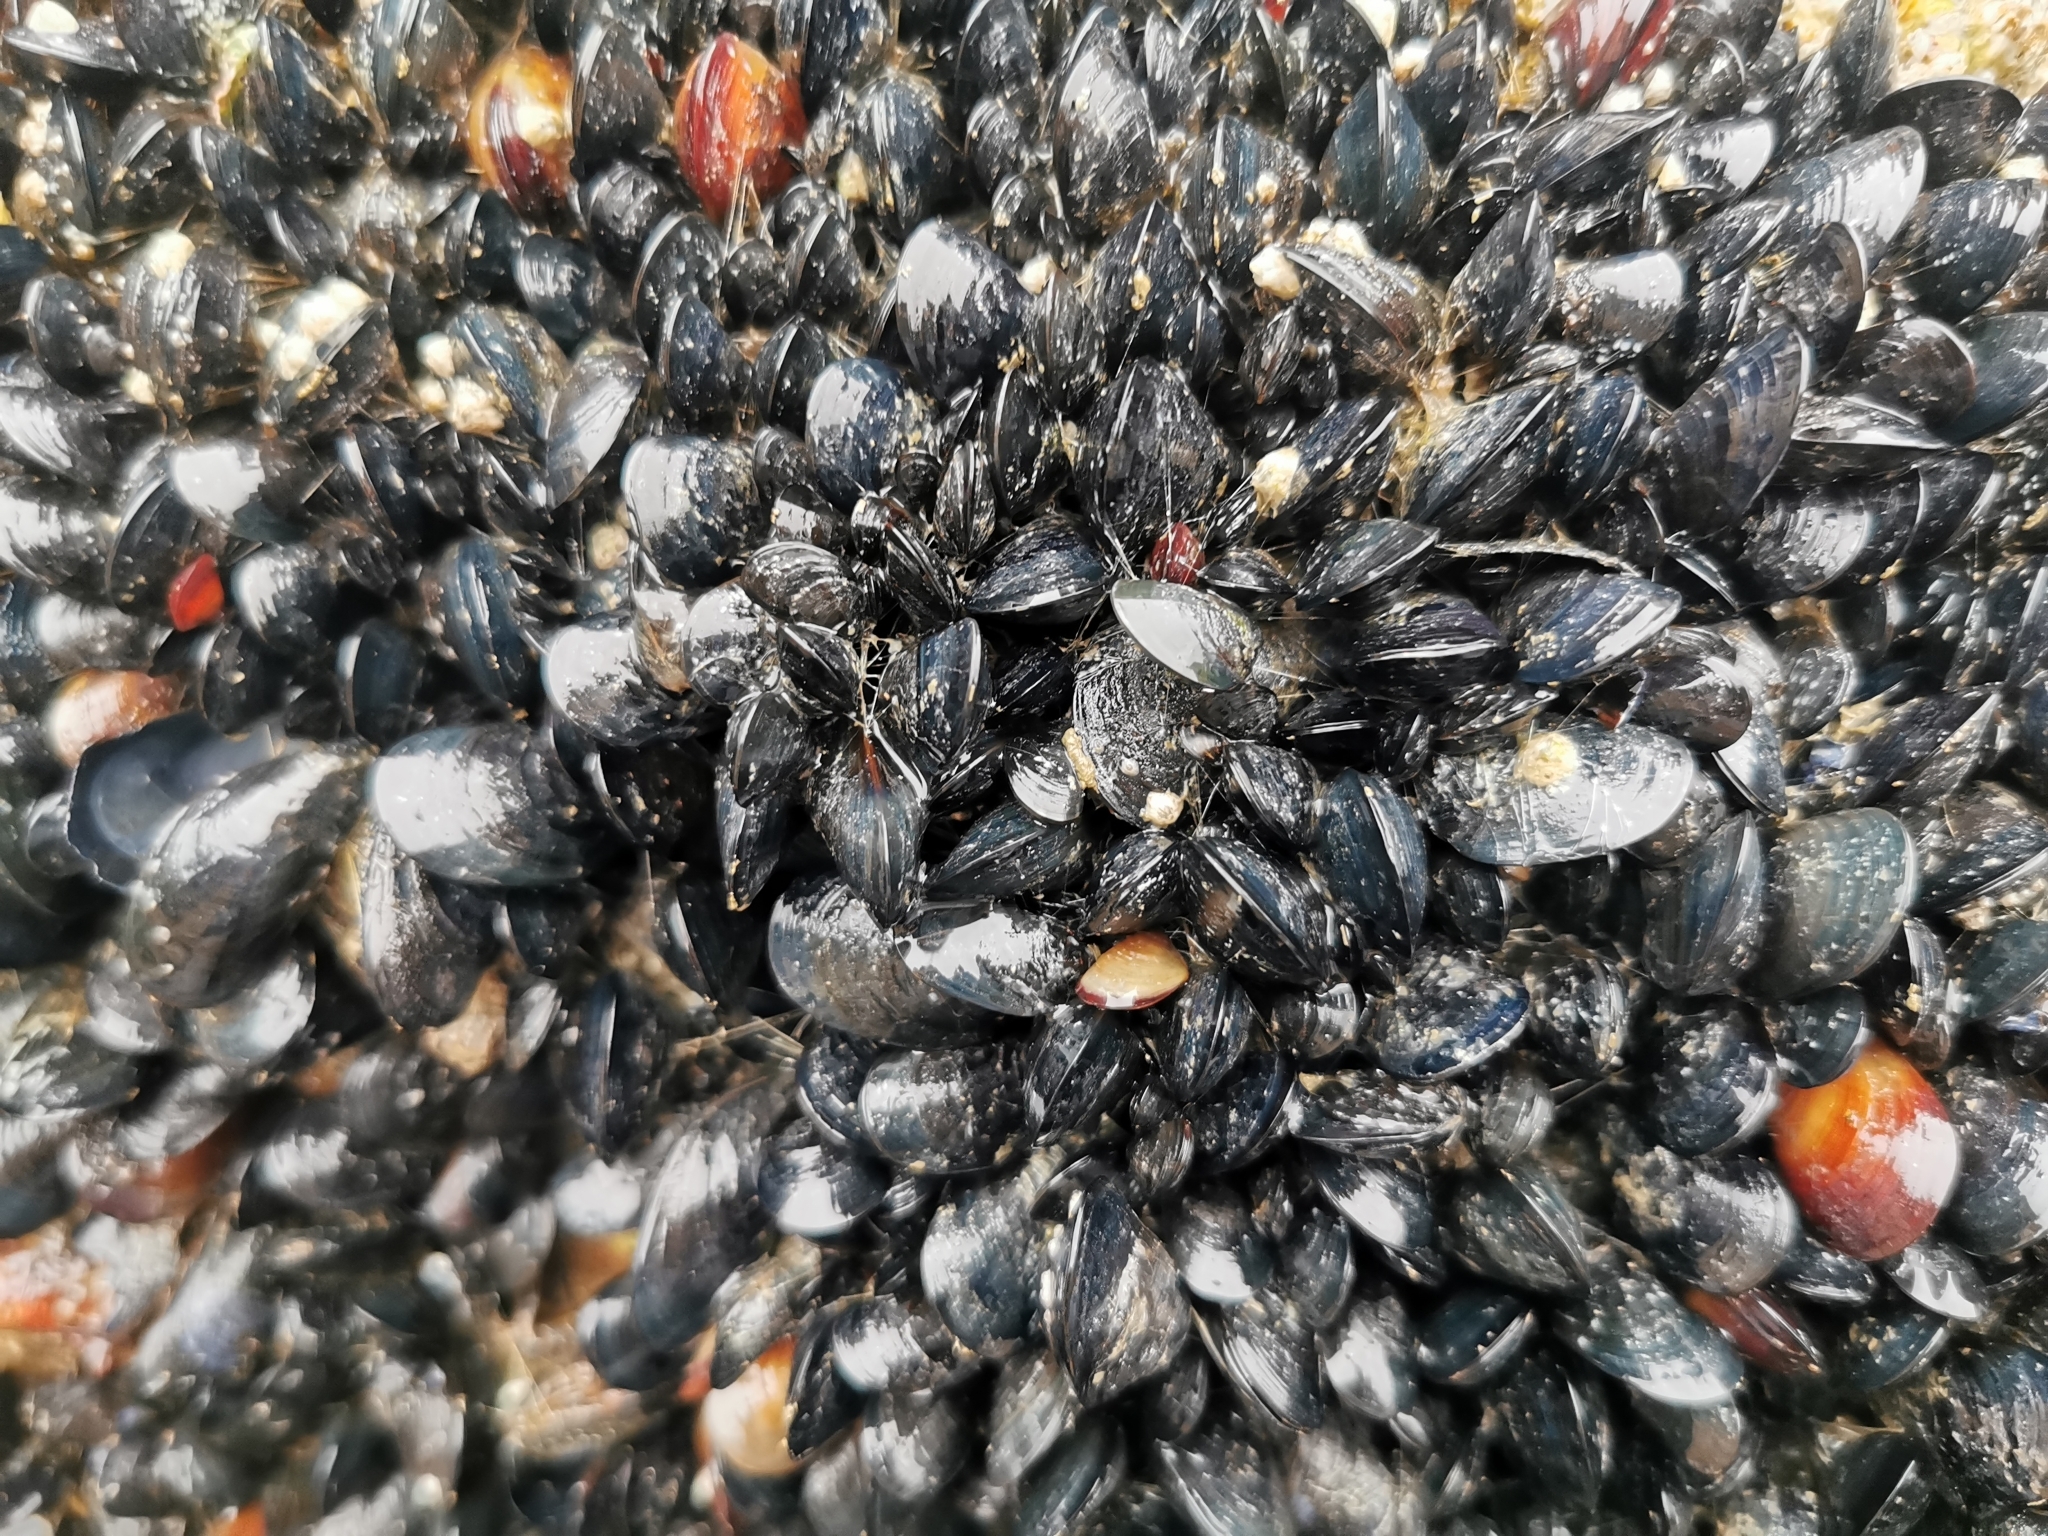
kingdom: Animalia
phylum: Mollusca
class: Bivalvia
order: Mytilida
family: Mytilidae
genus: Mytilus
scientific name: Mytilus
